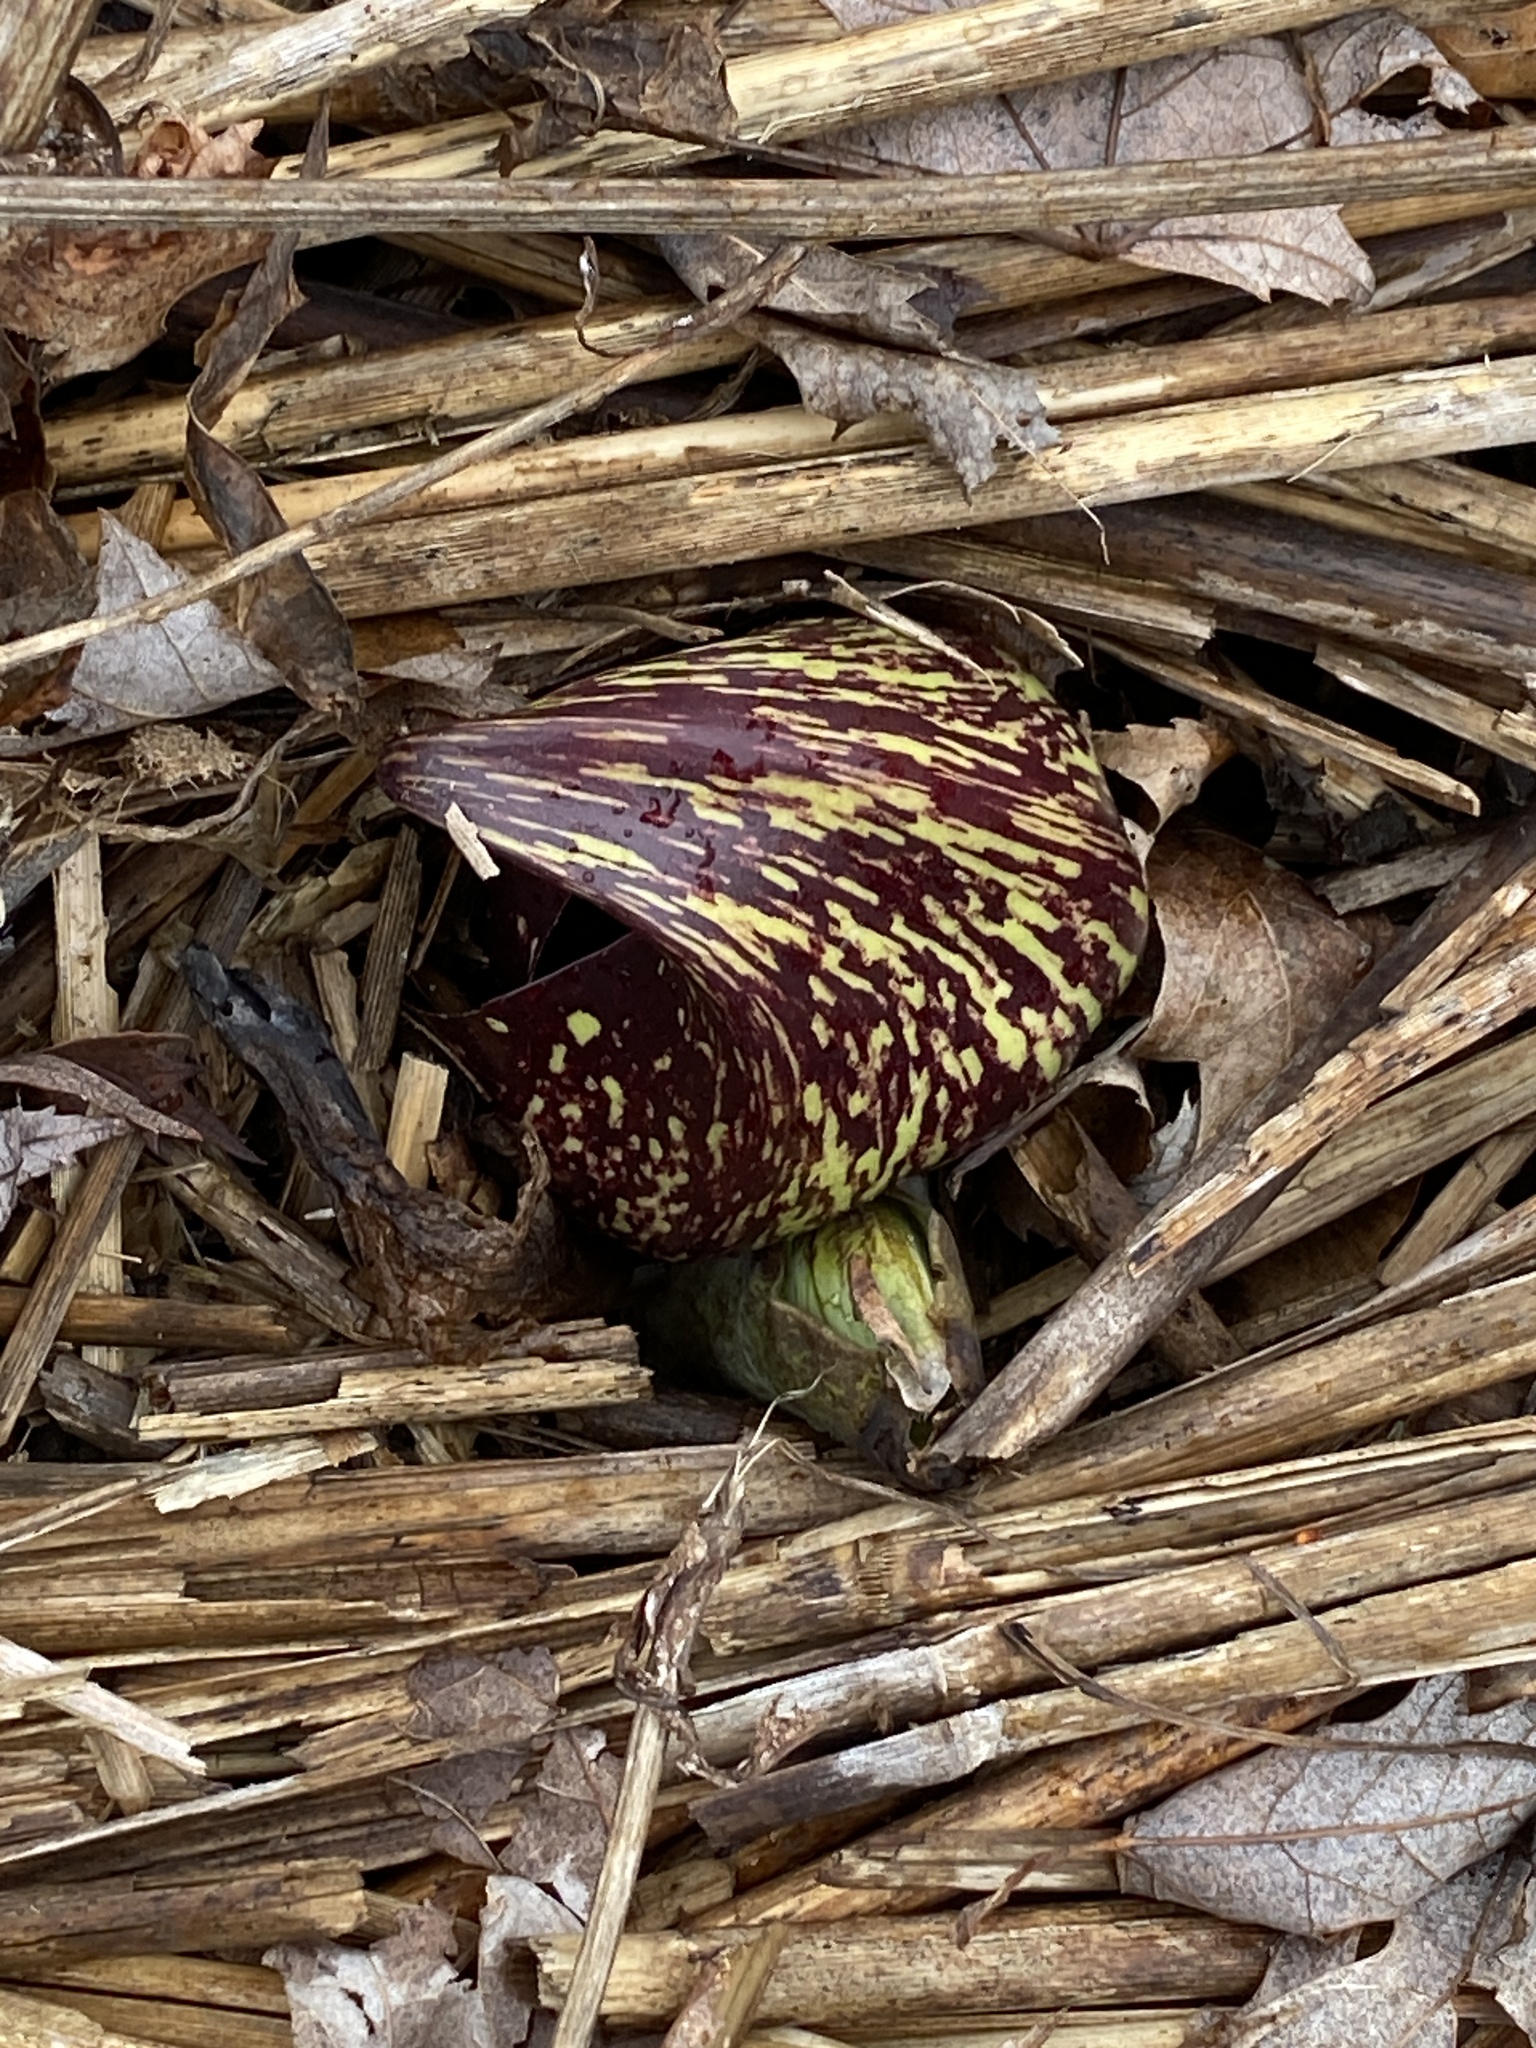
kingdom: Plantae
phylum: Tracheophyta
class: Liliopsida
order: Alismatales
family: Araceae
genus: Symplocarpus
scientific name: Symplocarpus foetidus
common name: Eastern skunk cabbage
